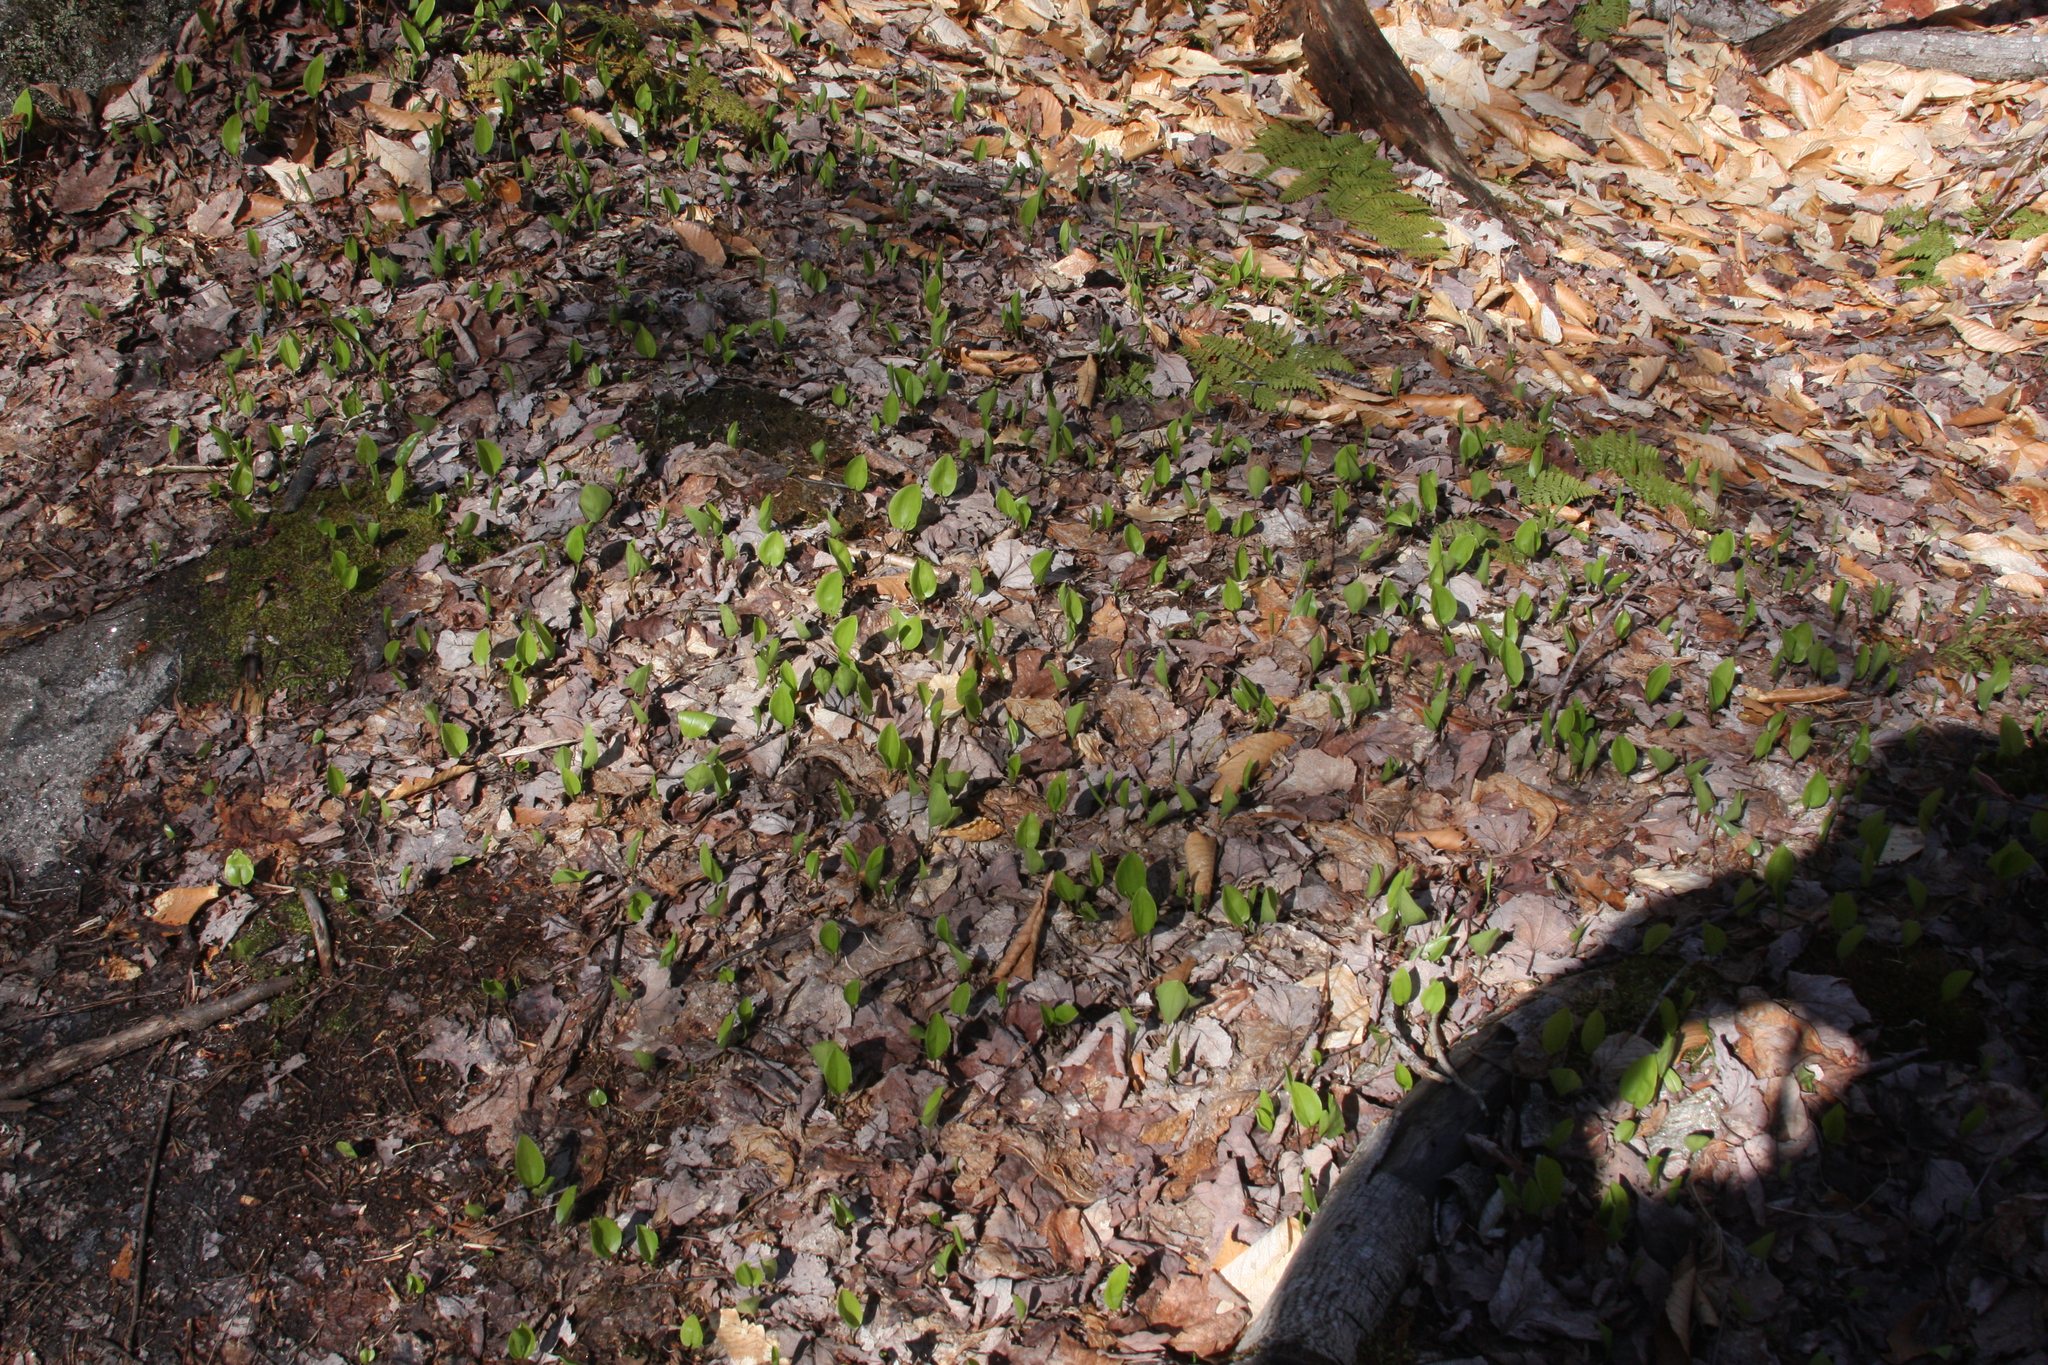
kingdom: Plantae
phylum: Tracheophyta
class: Liliopsida
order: Asparagales
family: Asparagaceae
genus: Maianthemum
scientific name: Maianthemum canadense
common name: False lily-of-the-valley
